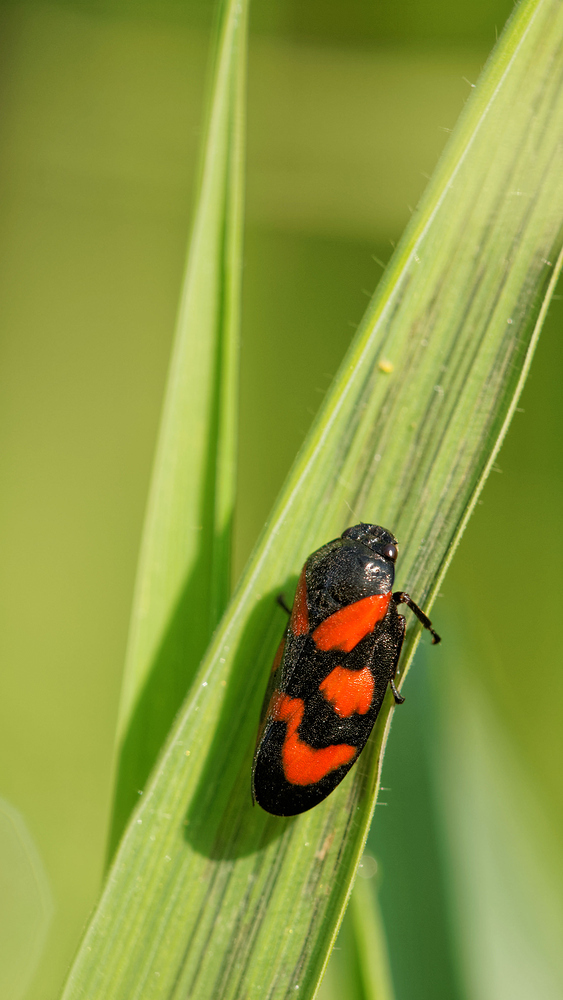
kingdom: Animalia
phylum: Arthropoda
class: Insecta
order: Hemiptera
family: Cercopidae
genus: Cercopis
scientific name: Cercopis vulnerata
